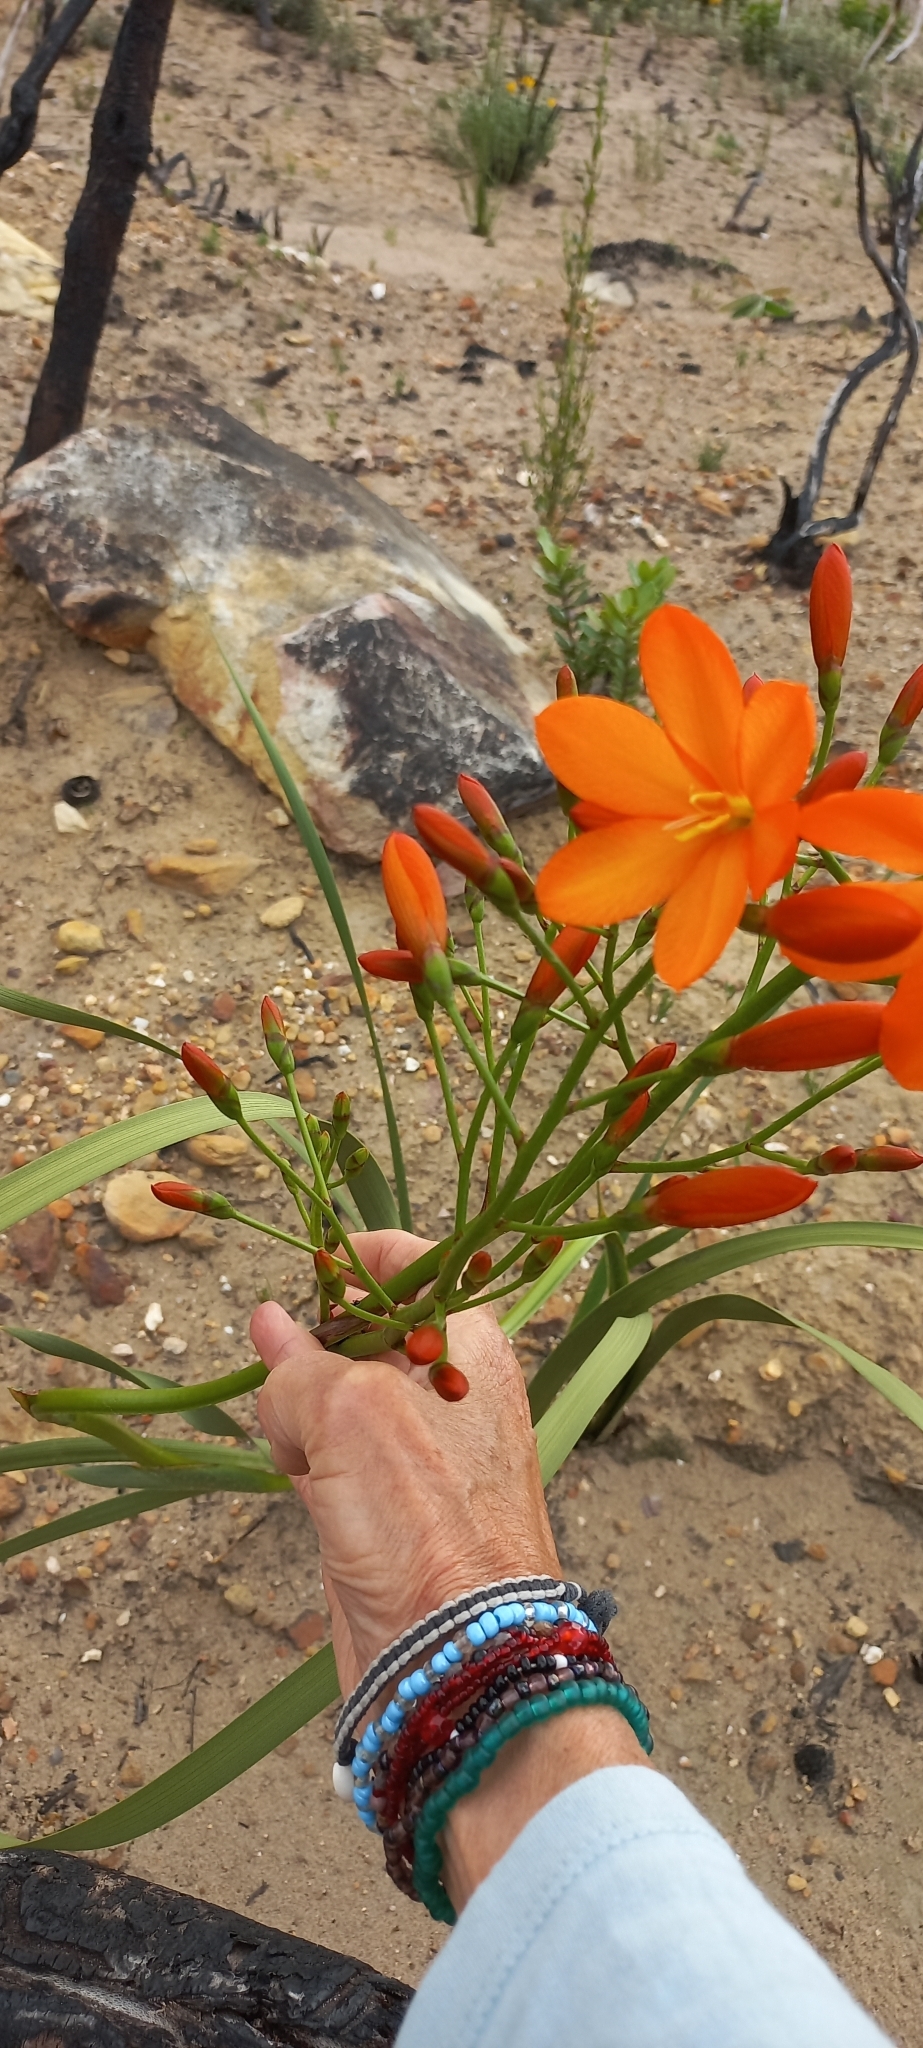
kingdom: Plantae
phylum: Tracheophyta
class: Liliopsida
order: Asparagales
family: Iridaceae
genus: Pillansia
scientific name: Pillansia templemannii
